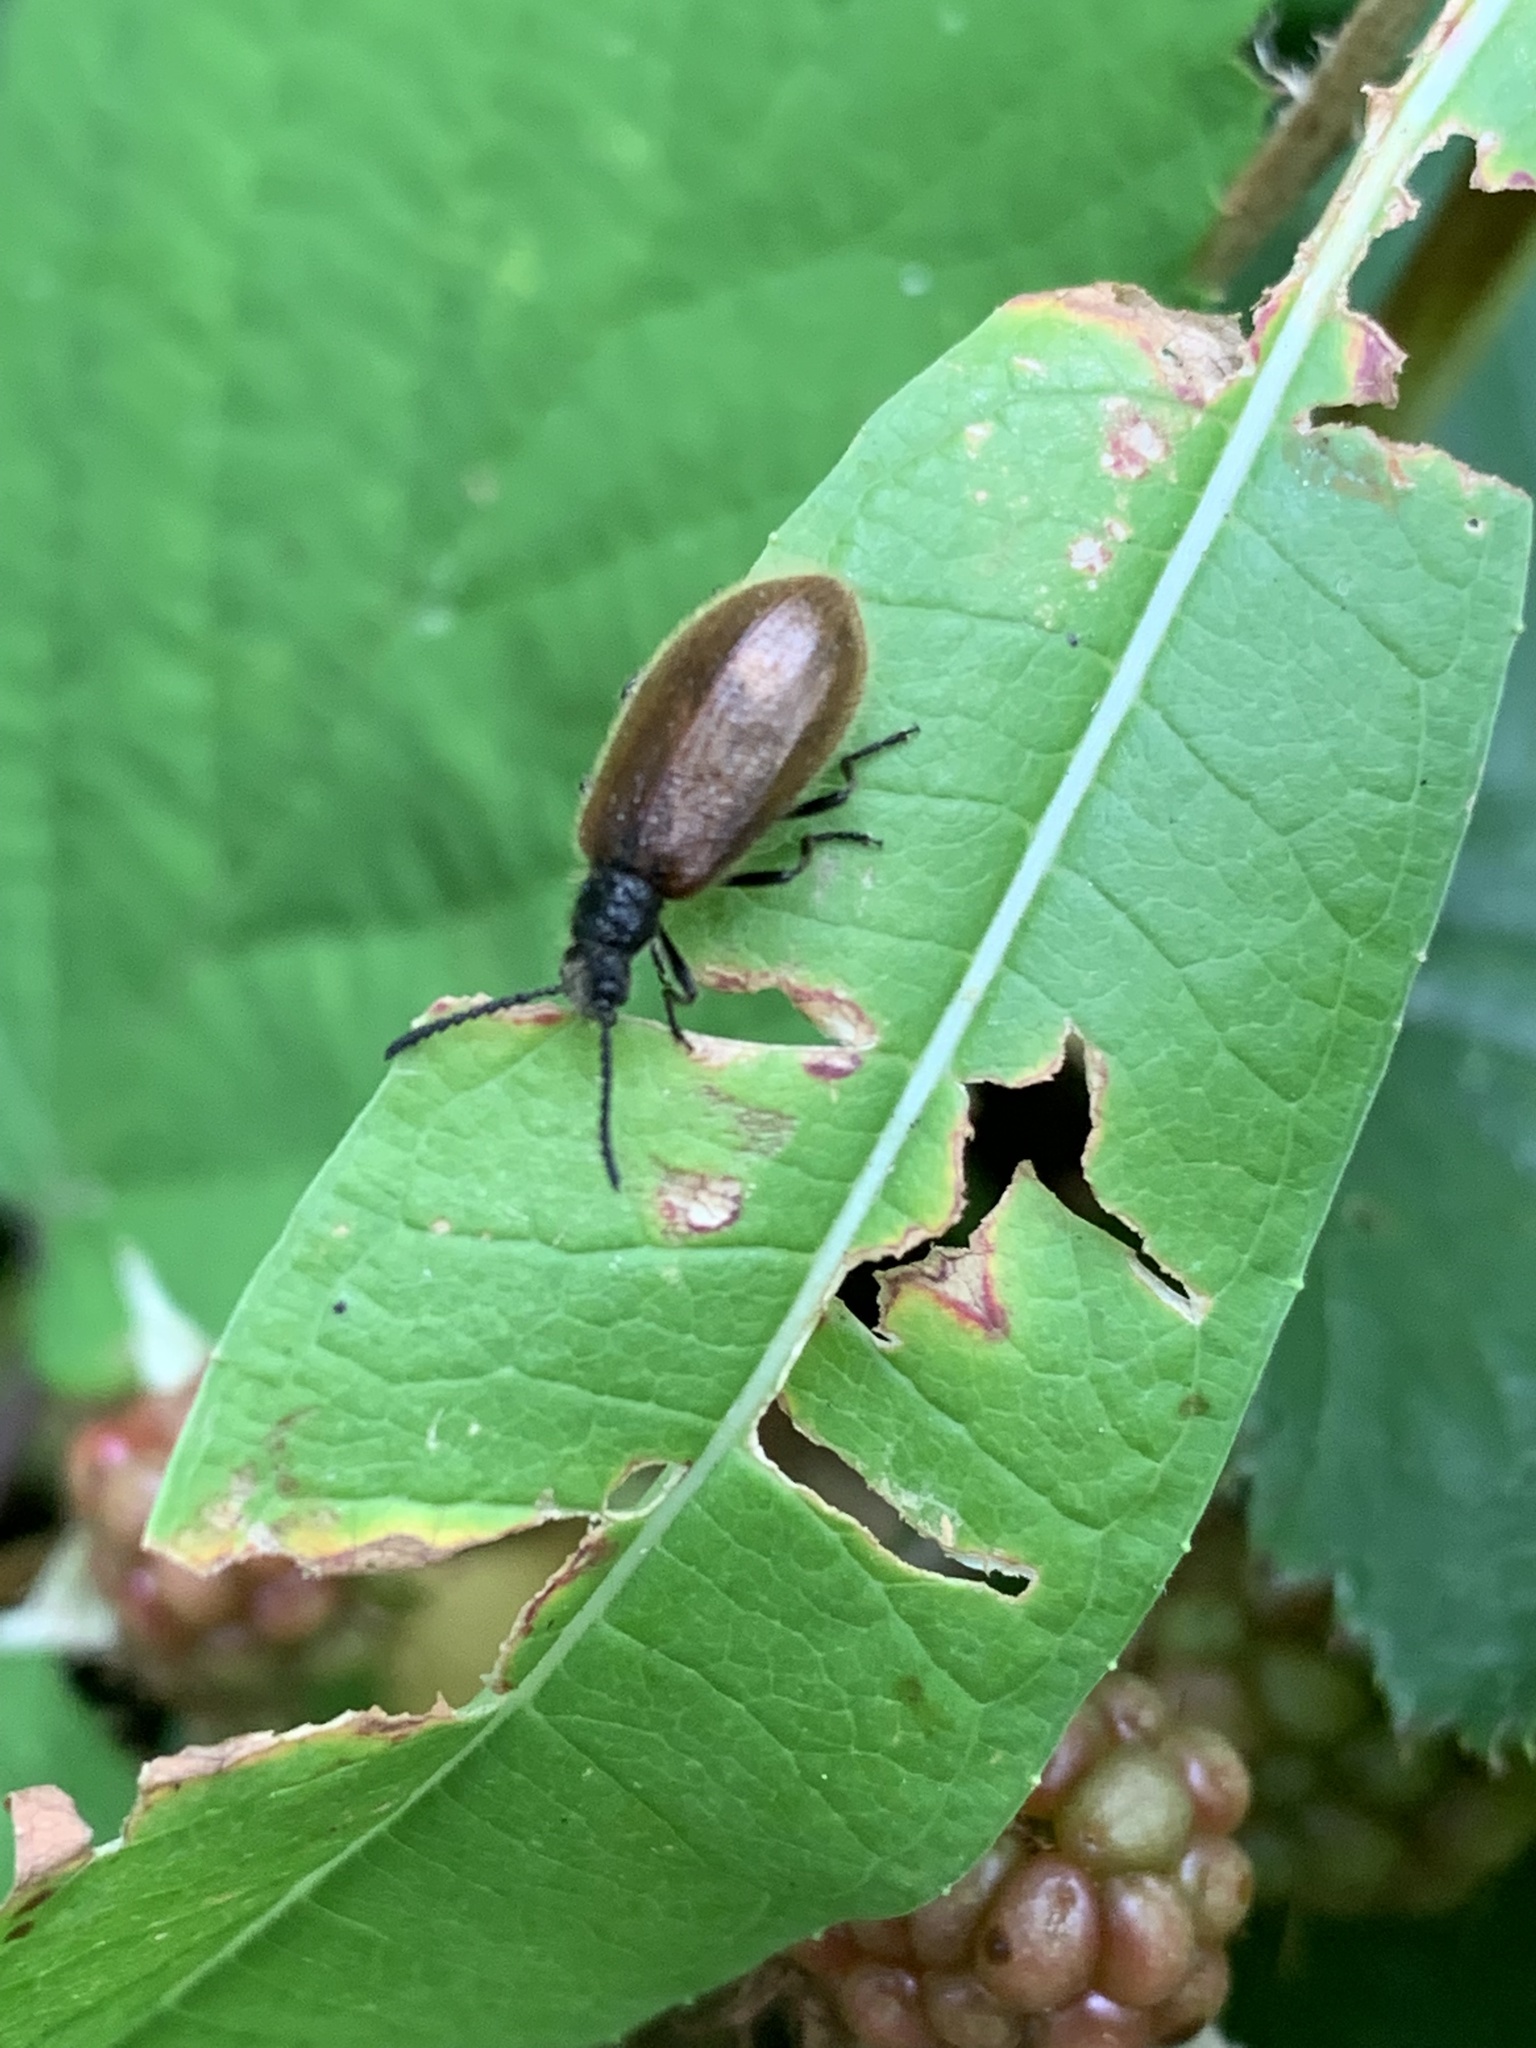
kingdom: Animalia
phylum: Arthropoda
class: Insecta
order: Coleoptera
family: Tenebrionidae
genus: Lagria
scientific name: Lagria hirta
